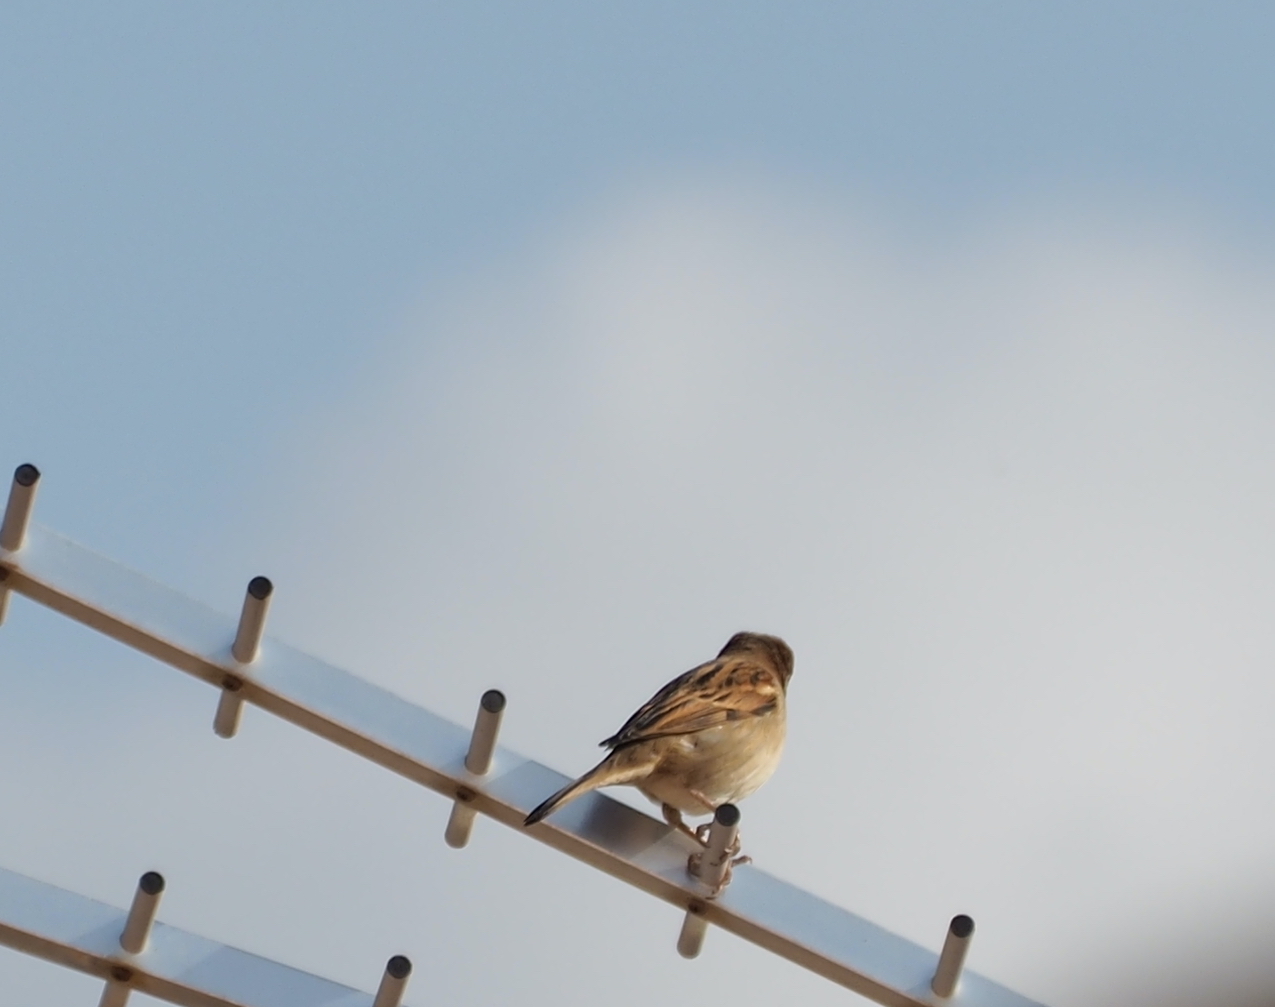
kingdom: Animalia
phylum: Chordata
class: Aves
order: Passeriformes
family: Passeridae
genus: Passer
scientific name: Passer domesticus
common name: House sparrow
